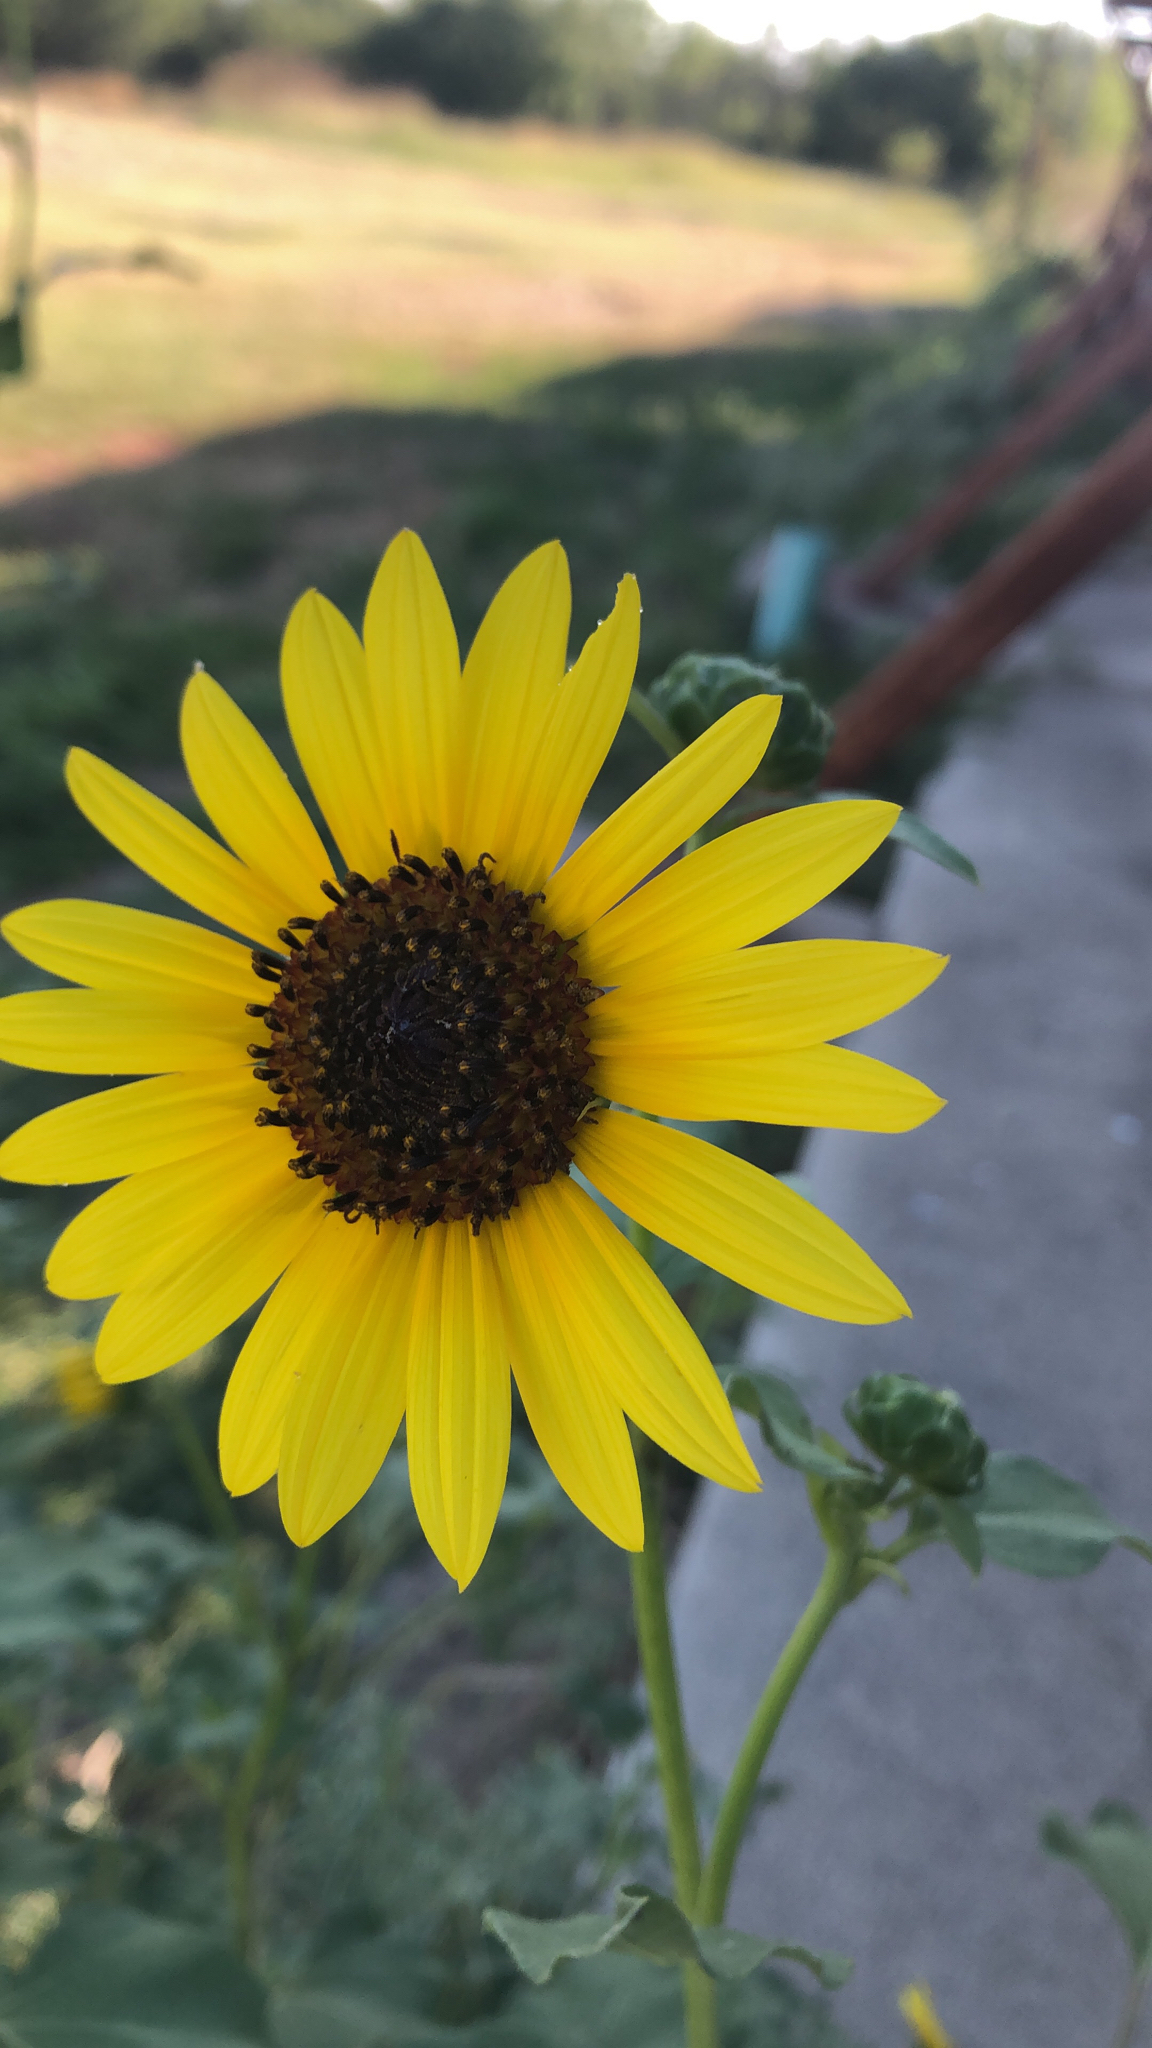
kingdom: Plantae
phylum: Tracheophyta
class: Magnoliopsida
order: Asterales
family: Asteraceae
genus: Helianthus
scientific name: Helianthus annuus
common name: Sunflower
